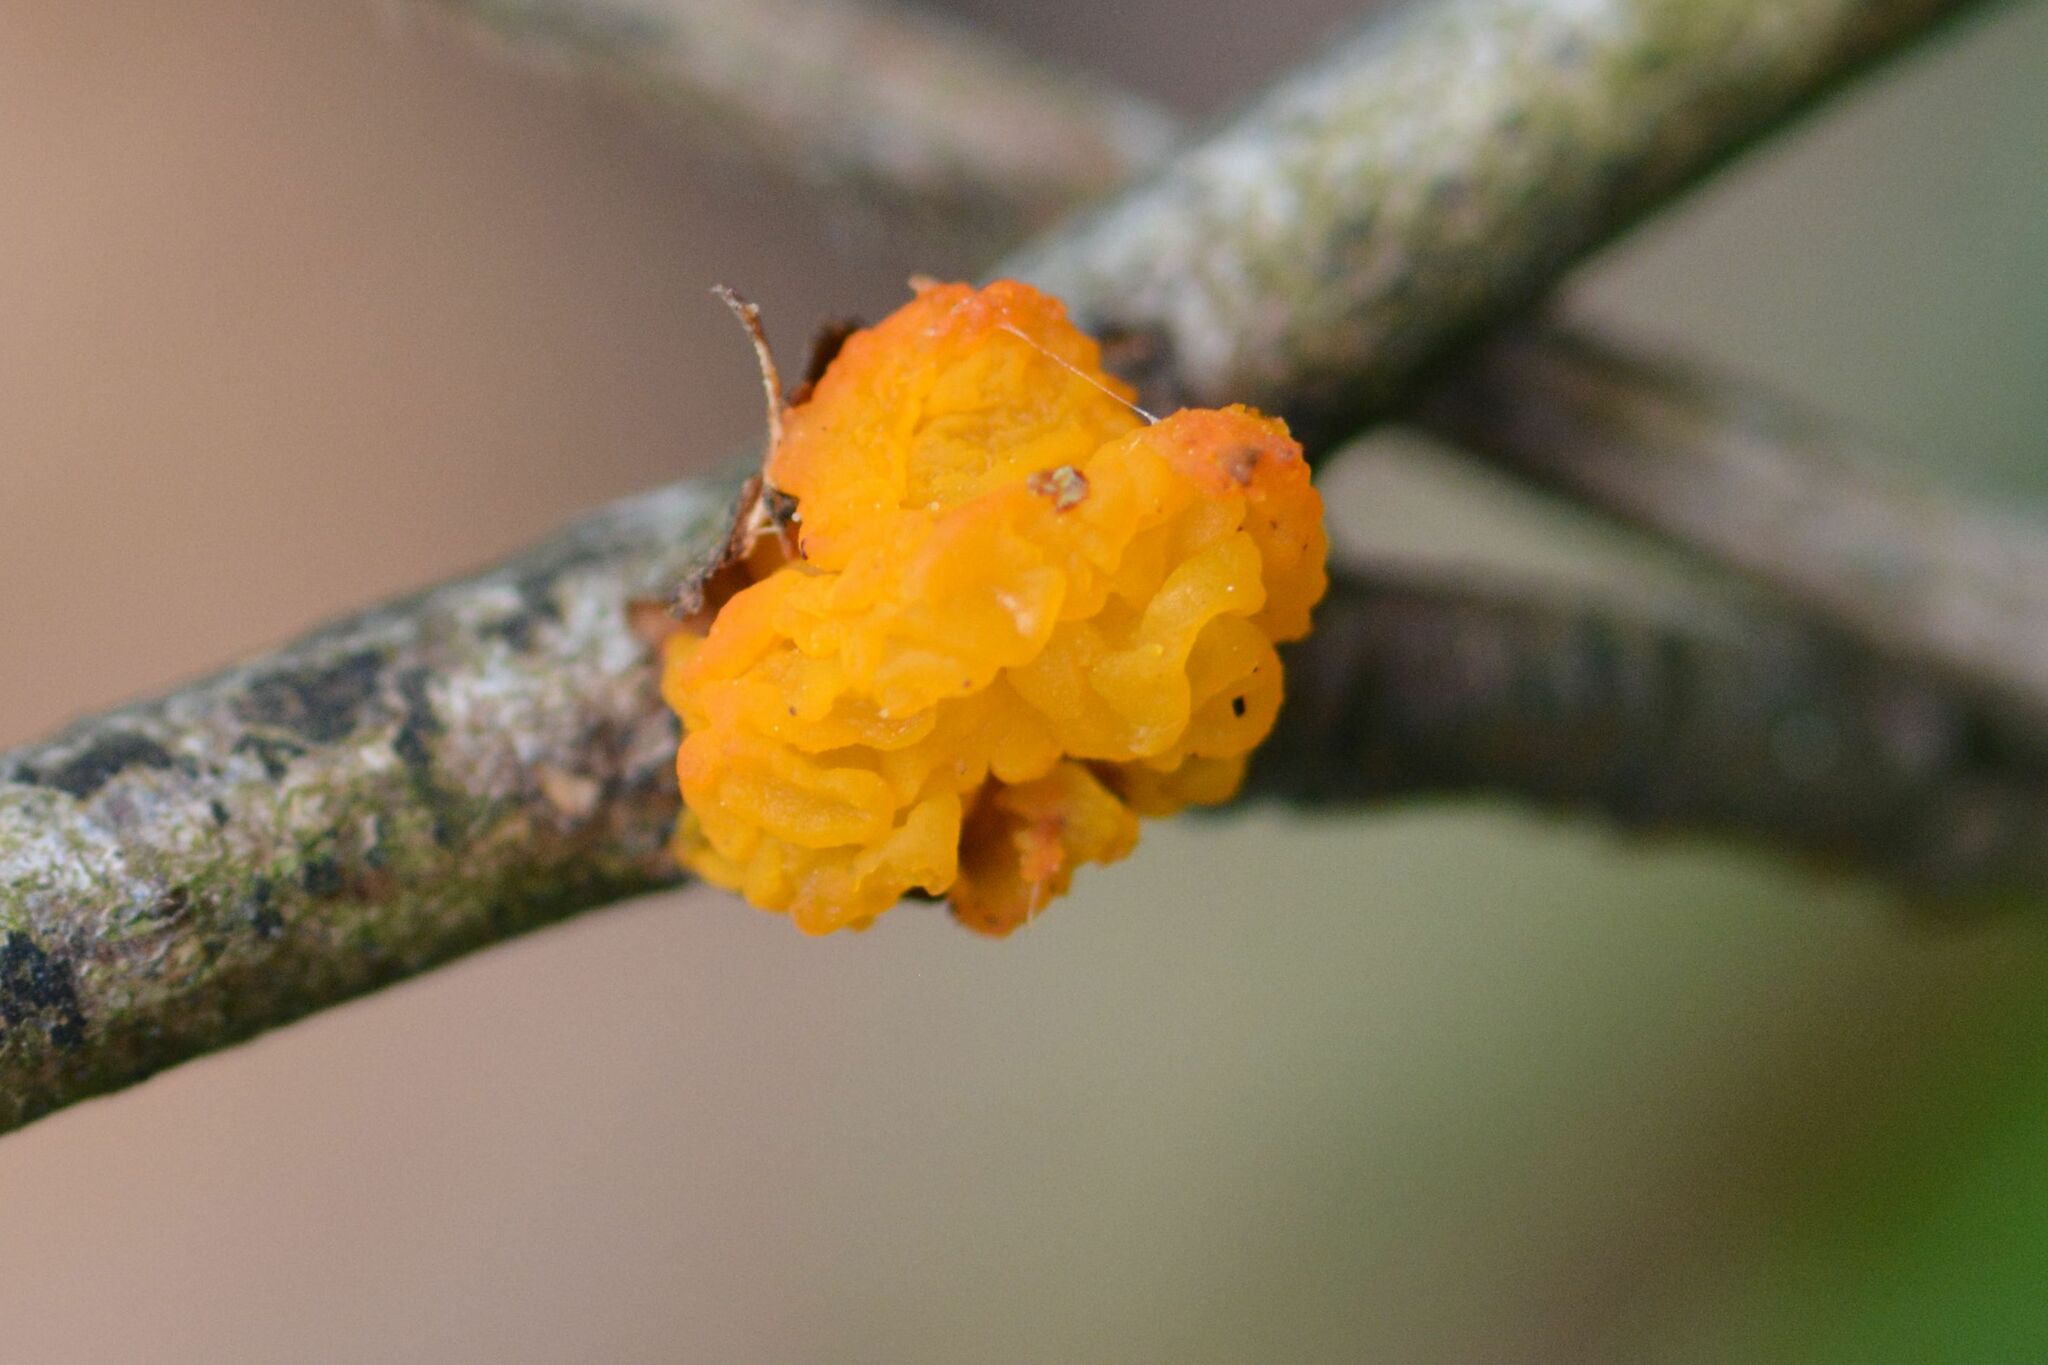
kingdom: Fungi
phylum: Basidiomycota
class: Tremellomycetes
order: Tremellales
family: Tremellaceae
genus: Tremella
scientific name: Tremella mesenterica
